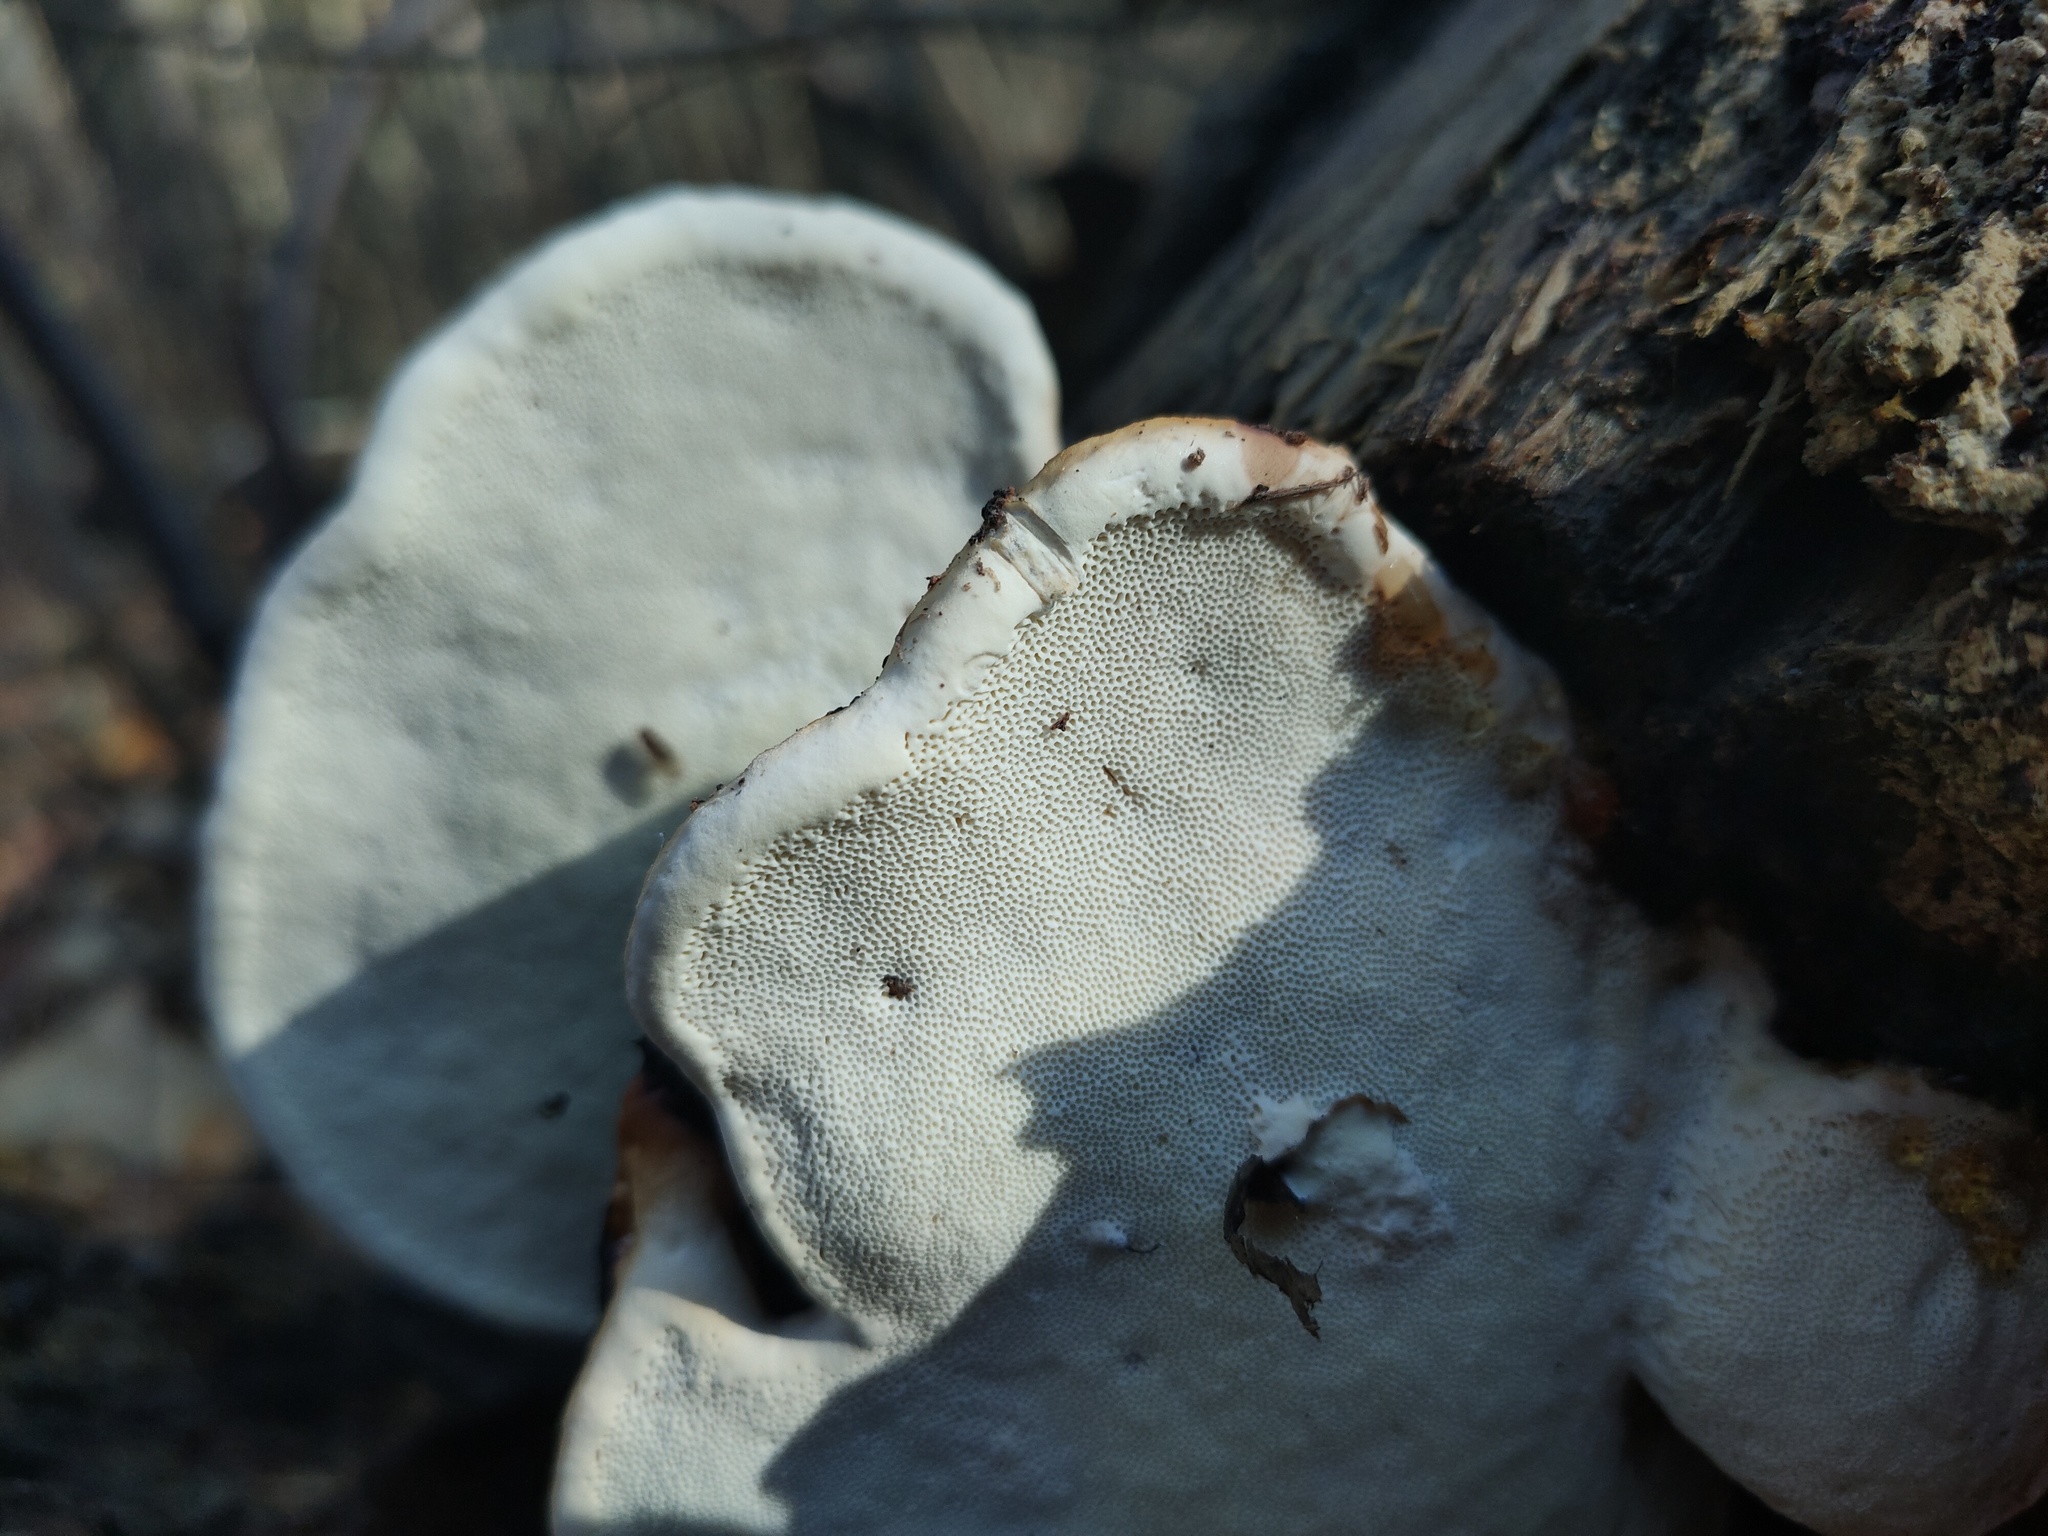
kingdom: Fungi
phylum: Basidiomycota
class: Agaricomycetes
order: Polyporales
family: Fomitopsidaceae
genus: Fomitopsis
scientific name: Fomitopsis pinicola
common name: Red-belted bracket
